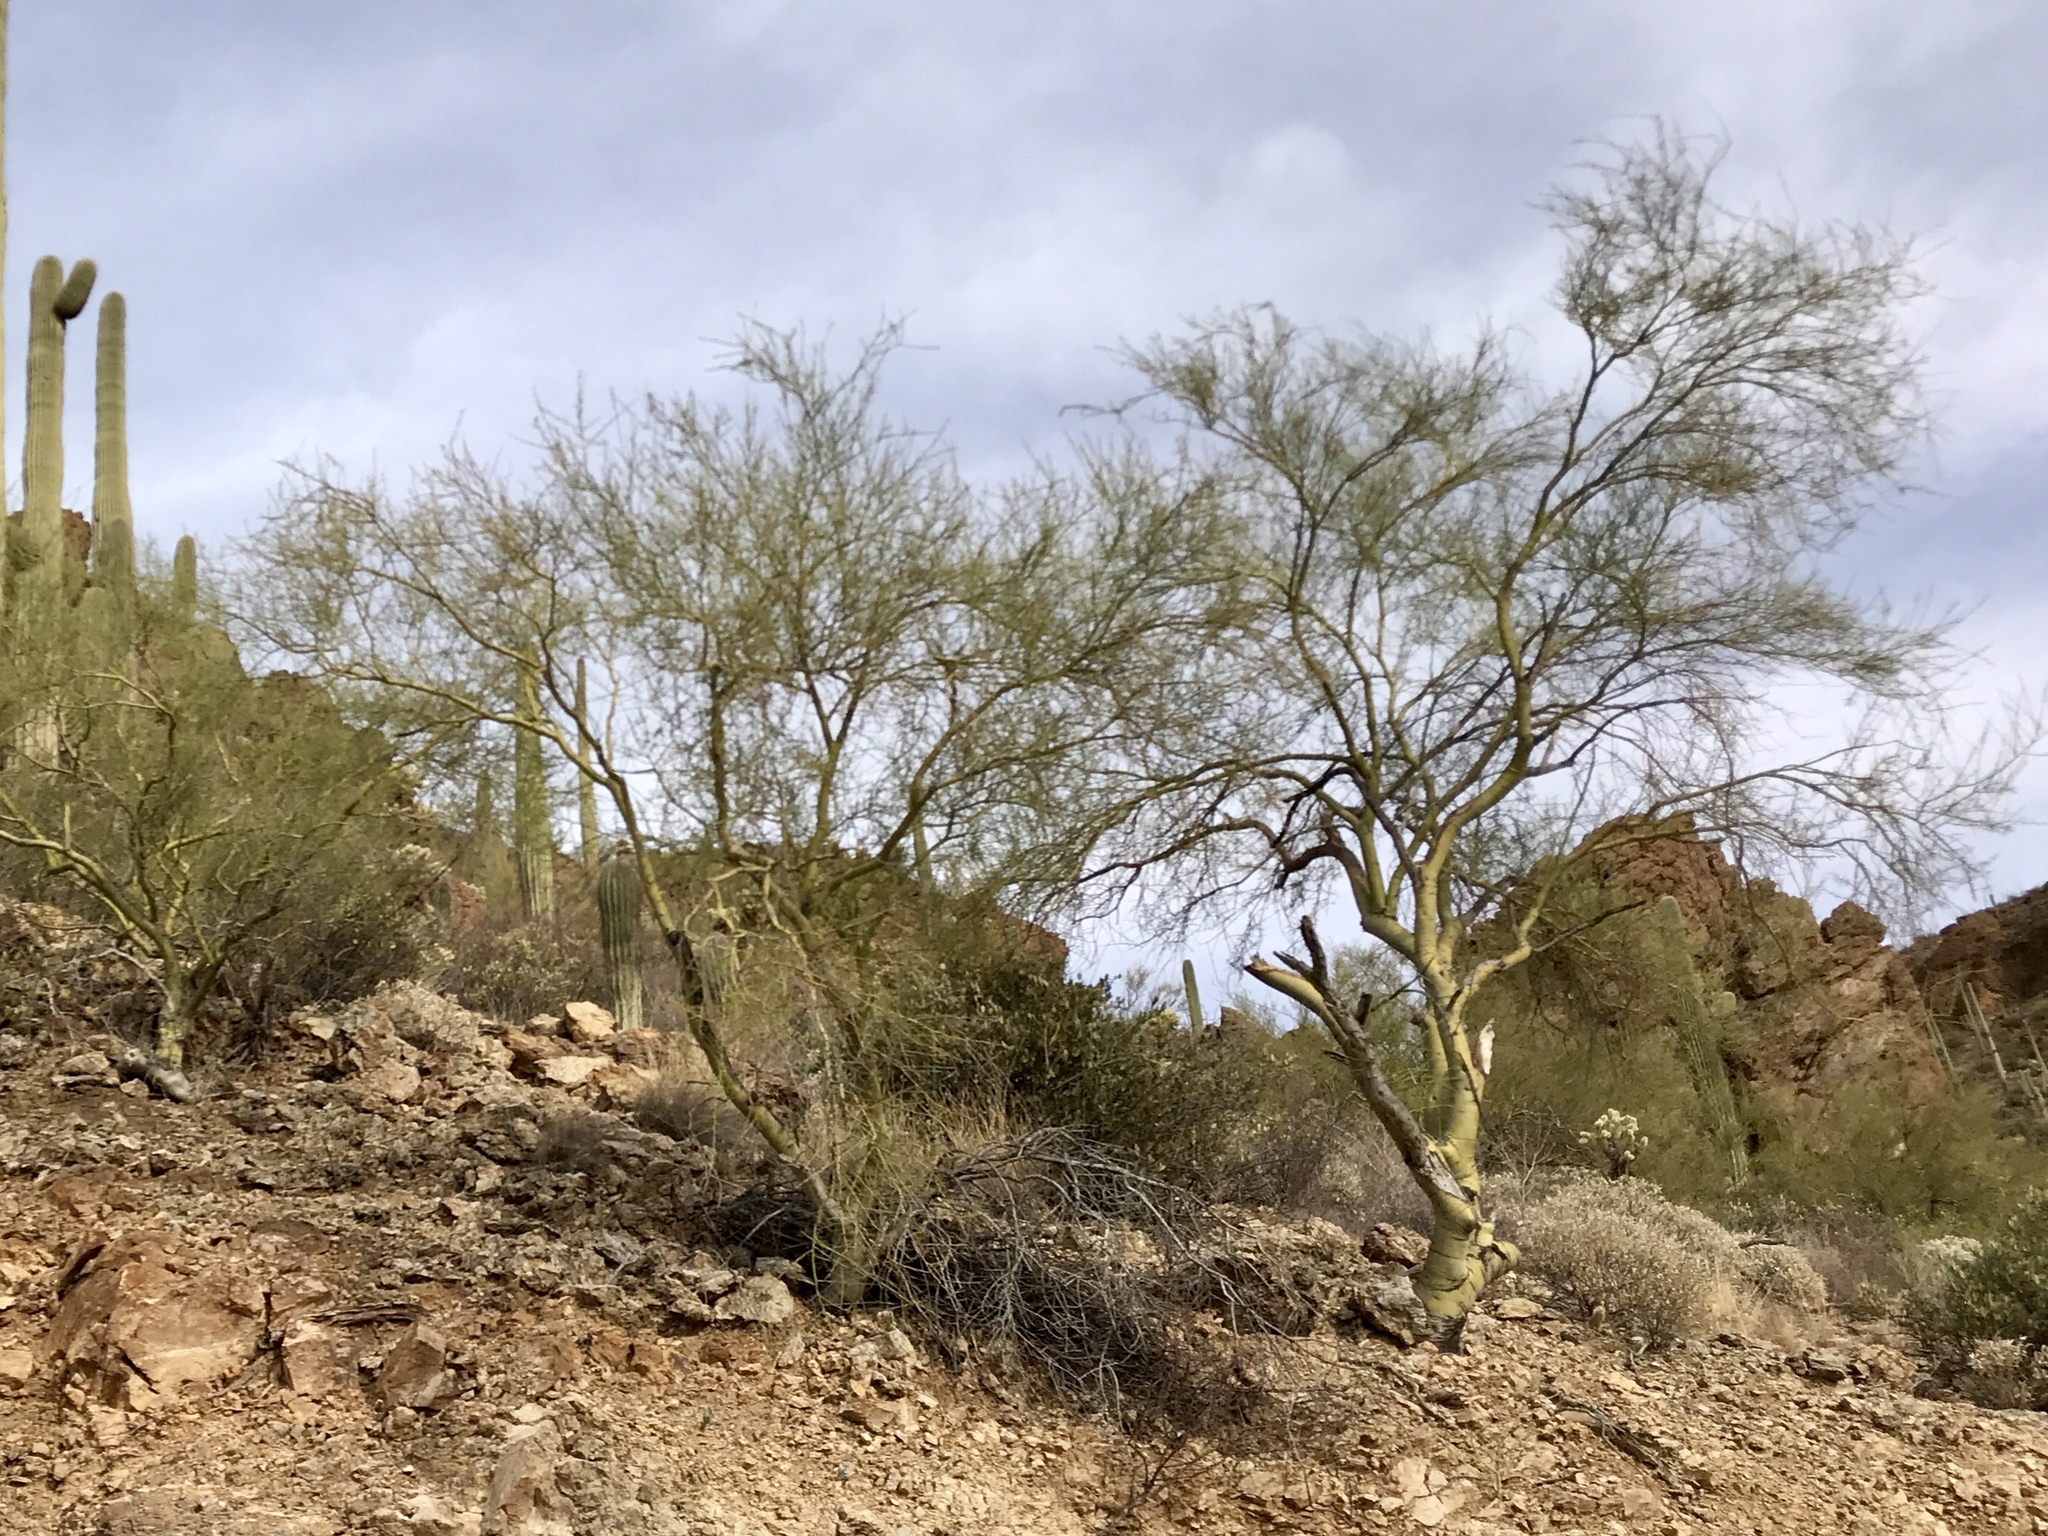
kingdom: Plantae
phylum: Tracheophyta
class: Magnoliopsida
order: Fabales
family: Fabaceae
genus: Parkinsonia
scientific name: Parkinsonia microphylla
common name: Yellow paloverde
